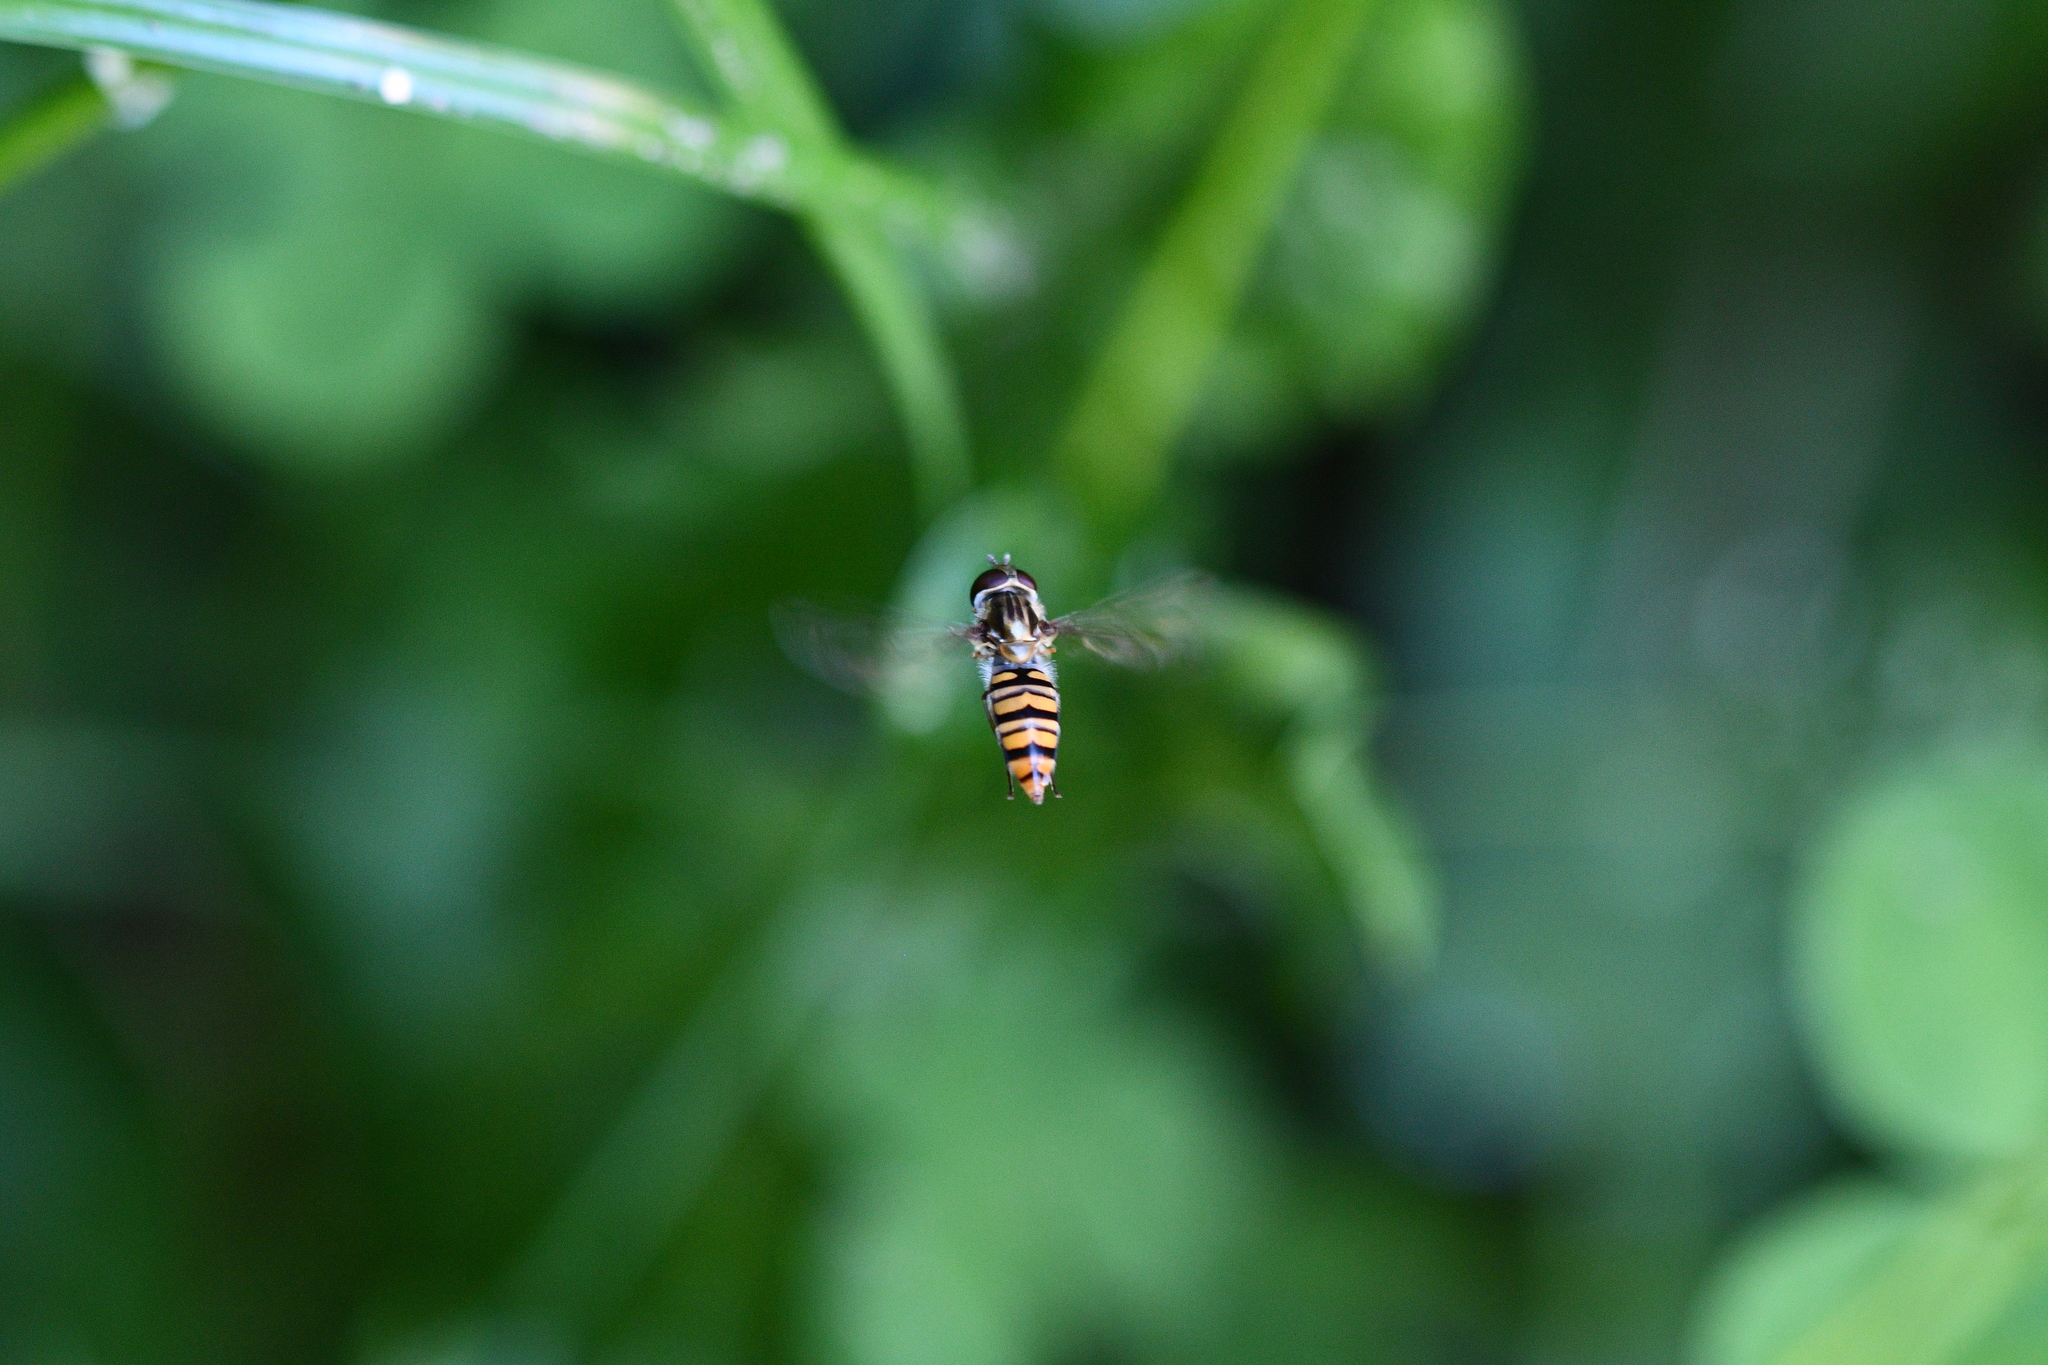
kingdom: Animalia
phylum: Arthropoda
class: Insecta
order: Diptera
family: Syrphidae
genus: Episyrphus
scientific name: Episyrphus balteatus
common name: Marmalade hoverfly
